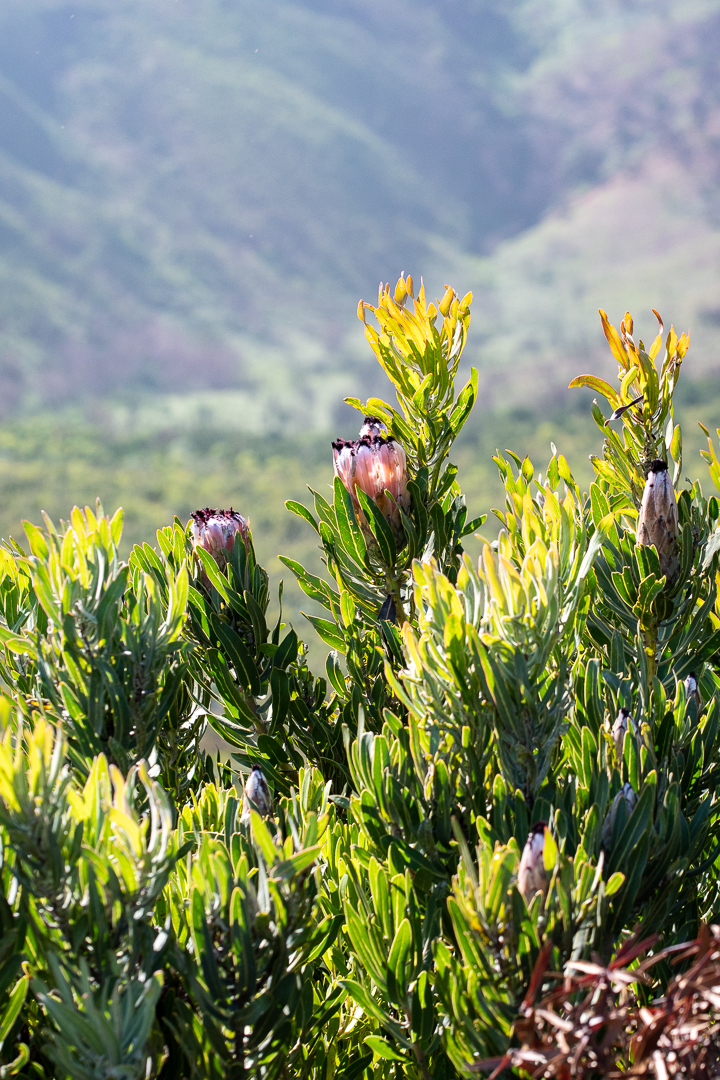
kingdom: Plantae
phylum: Tracheophyta
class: Magnoliopsida
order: Proteales
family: Proteaceae
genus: Protea
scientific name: Protea neriifolia
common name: Blue sugarbush
